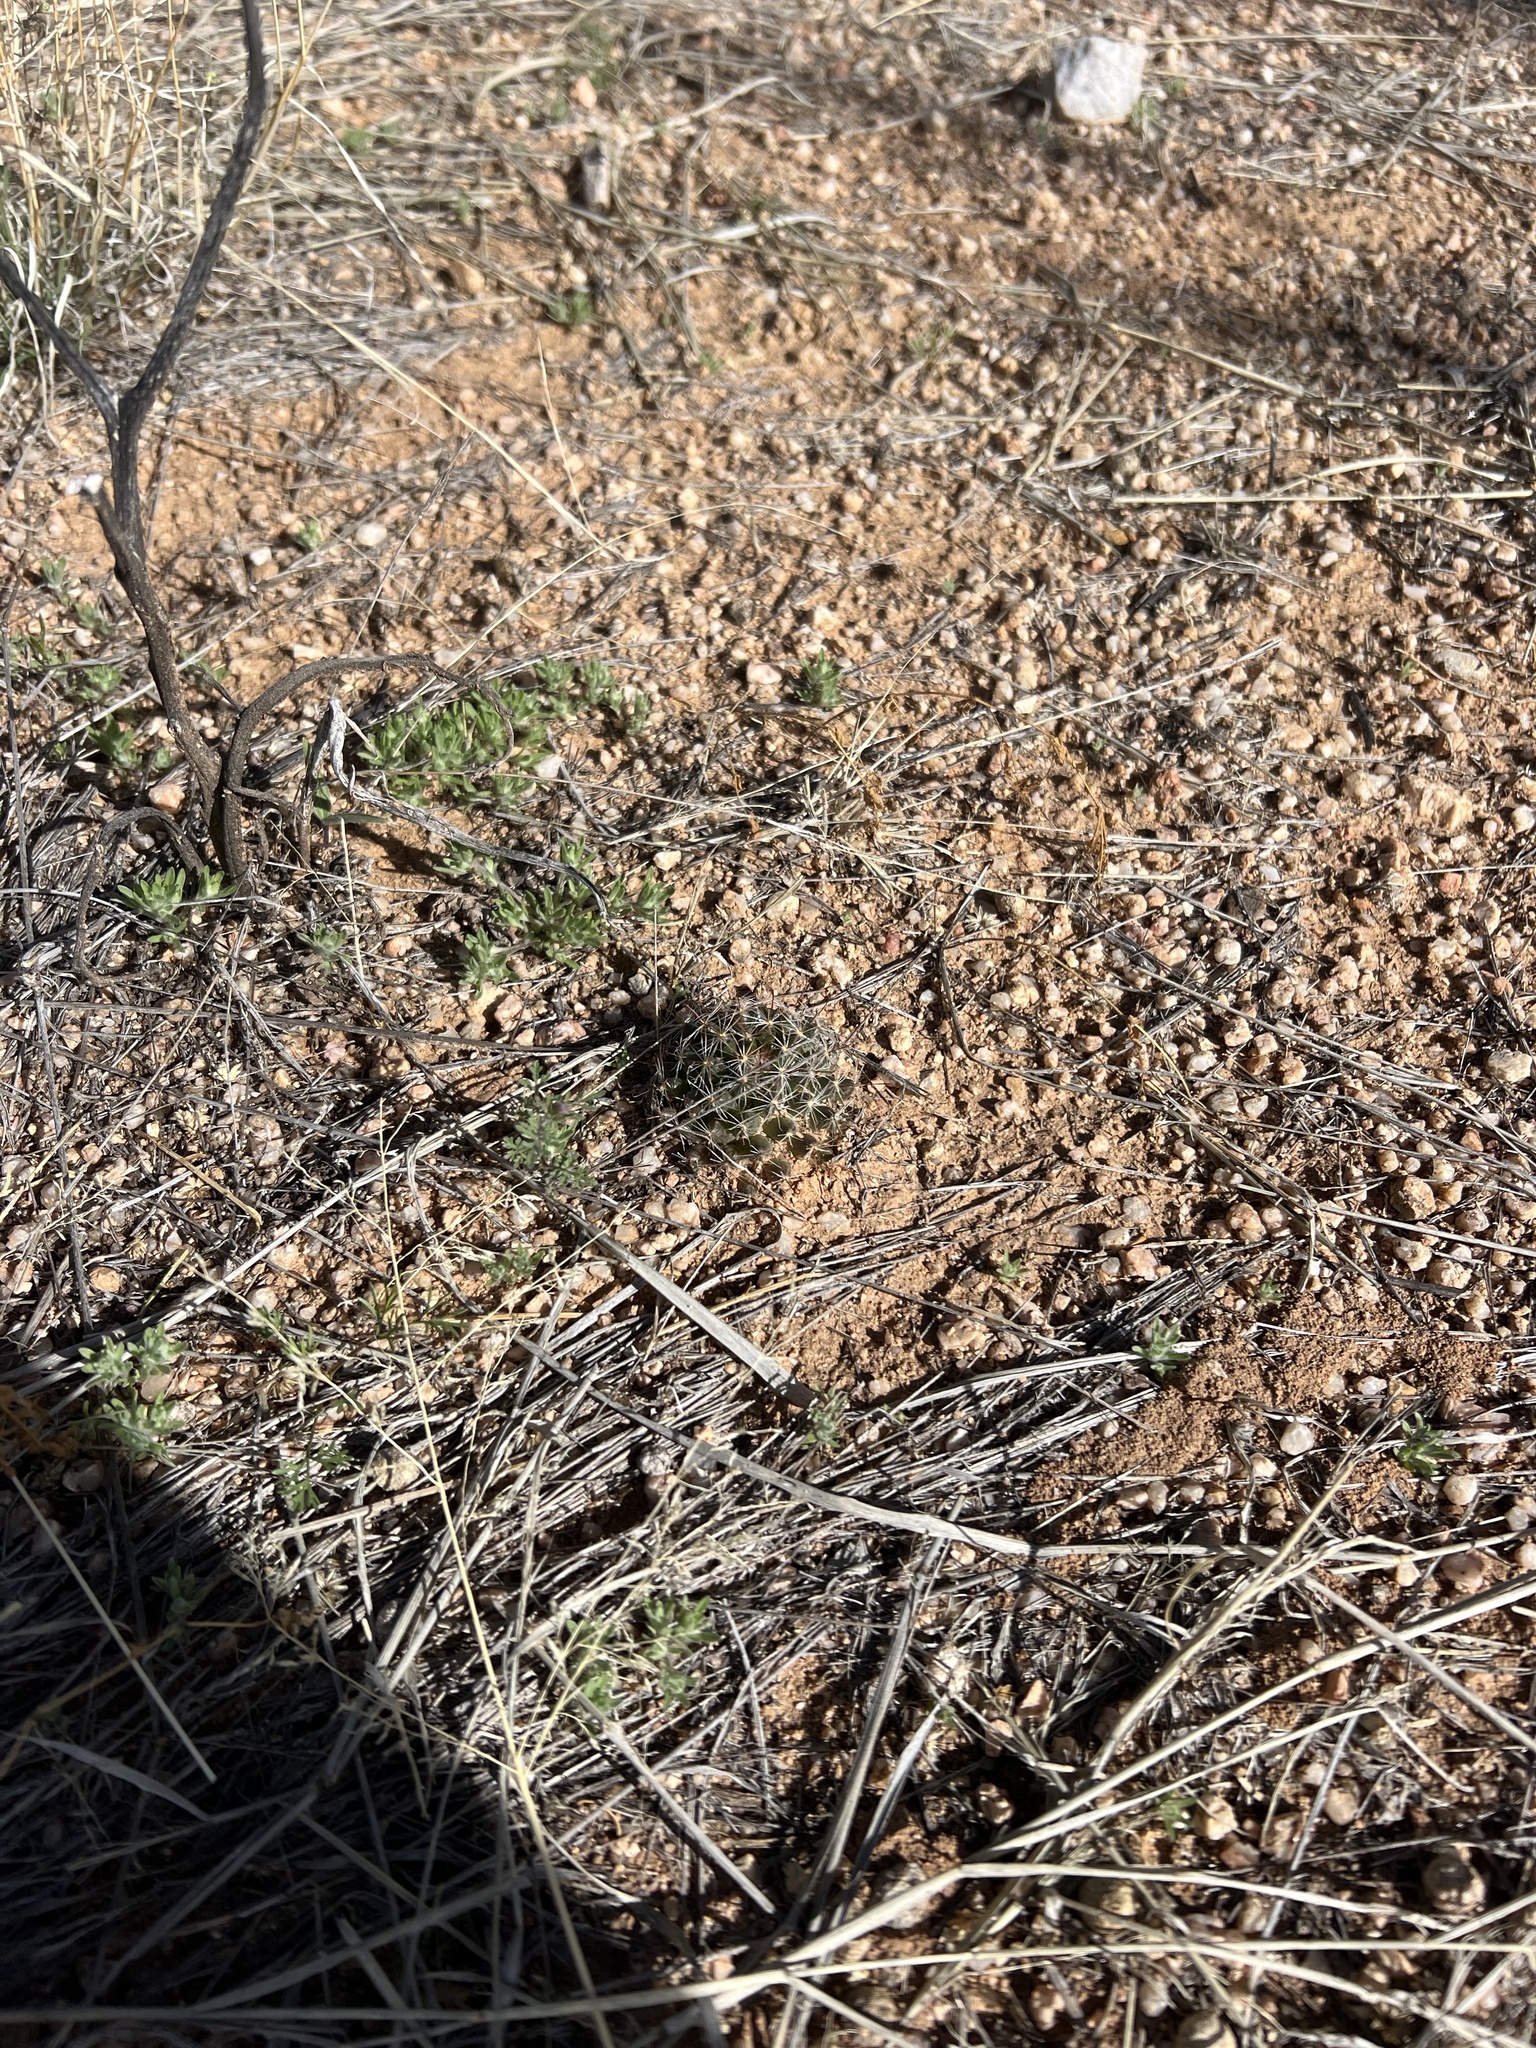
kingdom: Plantae
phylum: Tracheophyta
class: Magnoliopsida
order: Caryophyllales
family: Cactaceae
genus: Cochemiea
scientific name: Cochemiea wrightii
